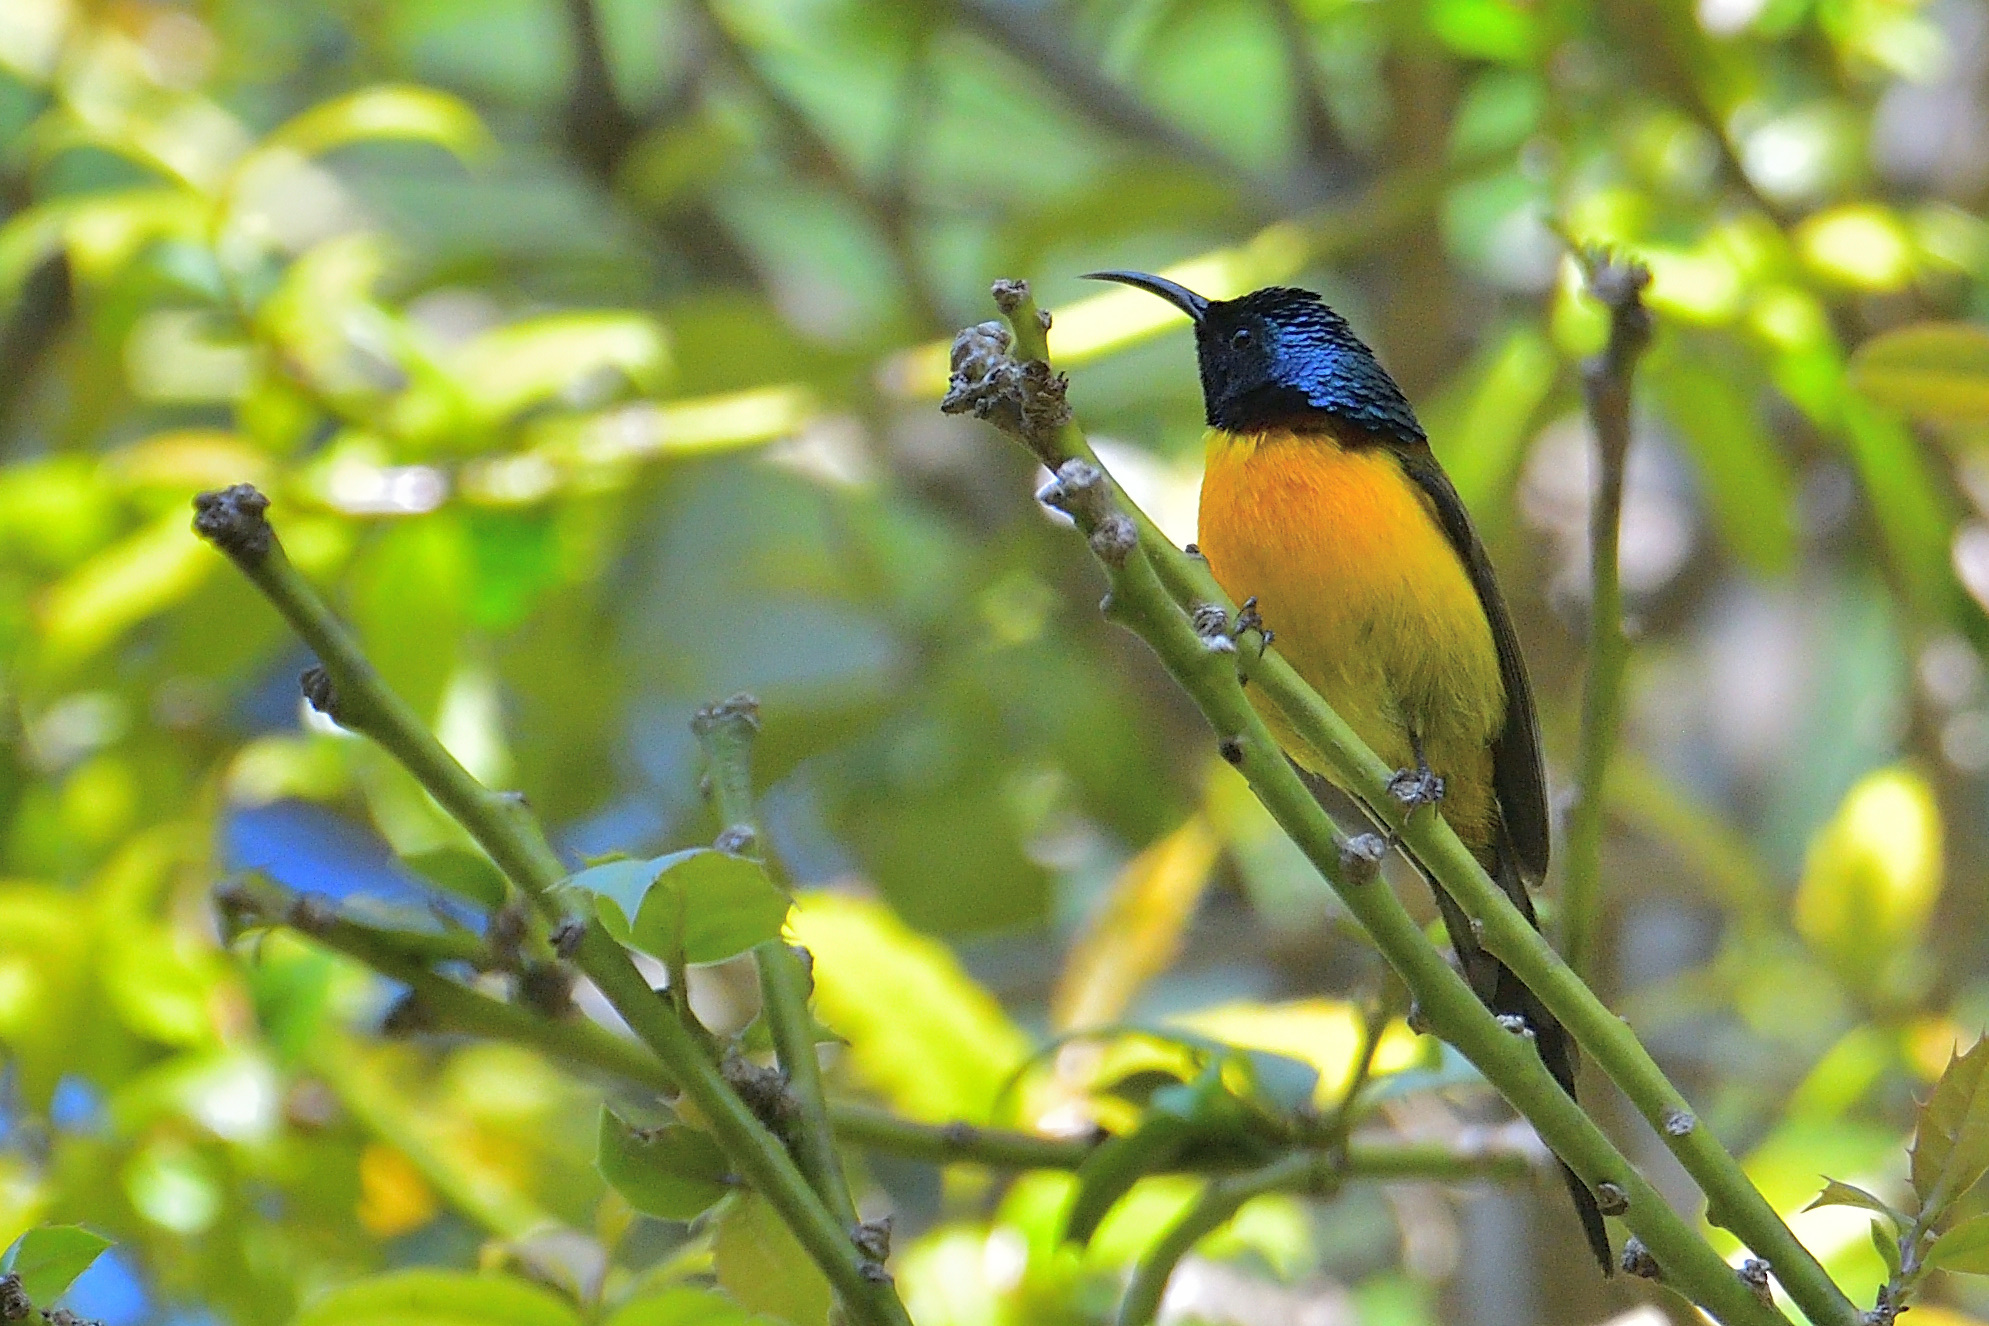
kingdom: Animalia
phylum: Chordata
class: Aves
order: Passeriformes
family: Nectariniidae
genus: Aethopyga
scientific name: Aethopyga nipalensis
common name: Green-tailed sunbird
